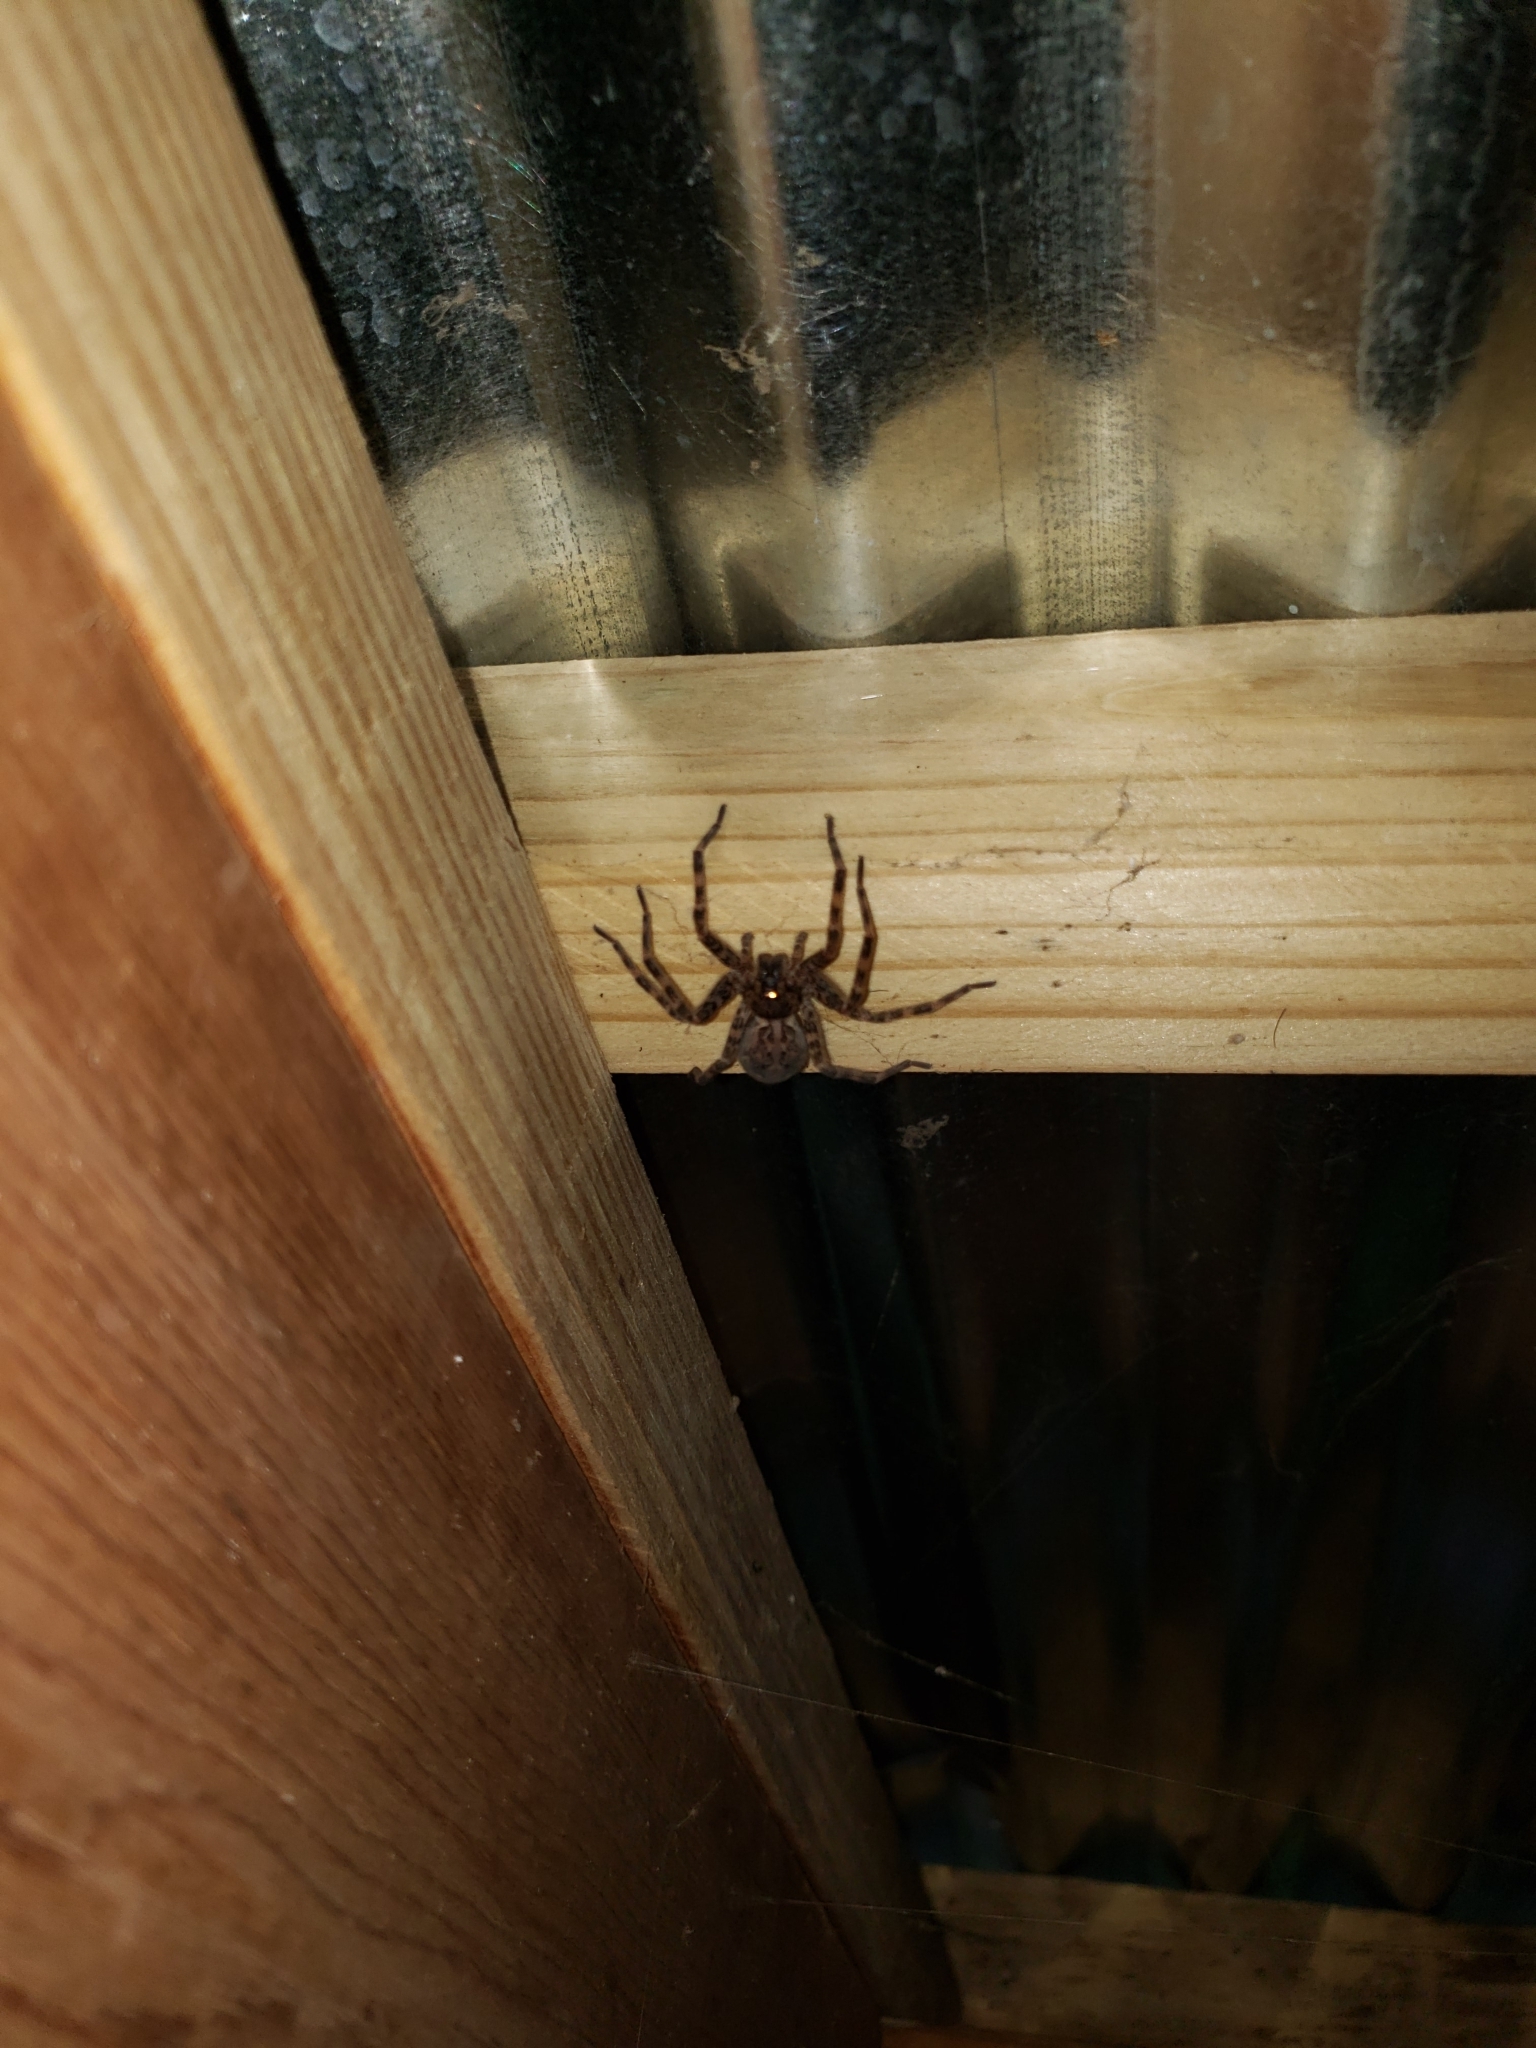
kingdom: Animalia
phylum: Arthropoda
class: Arachnida
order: Araneae
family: Pisauridae
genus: Dolomedes
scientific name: Dolomedes tenebrosus
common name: Dark fishing spider
